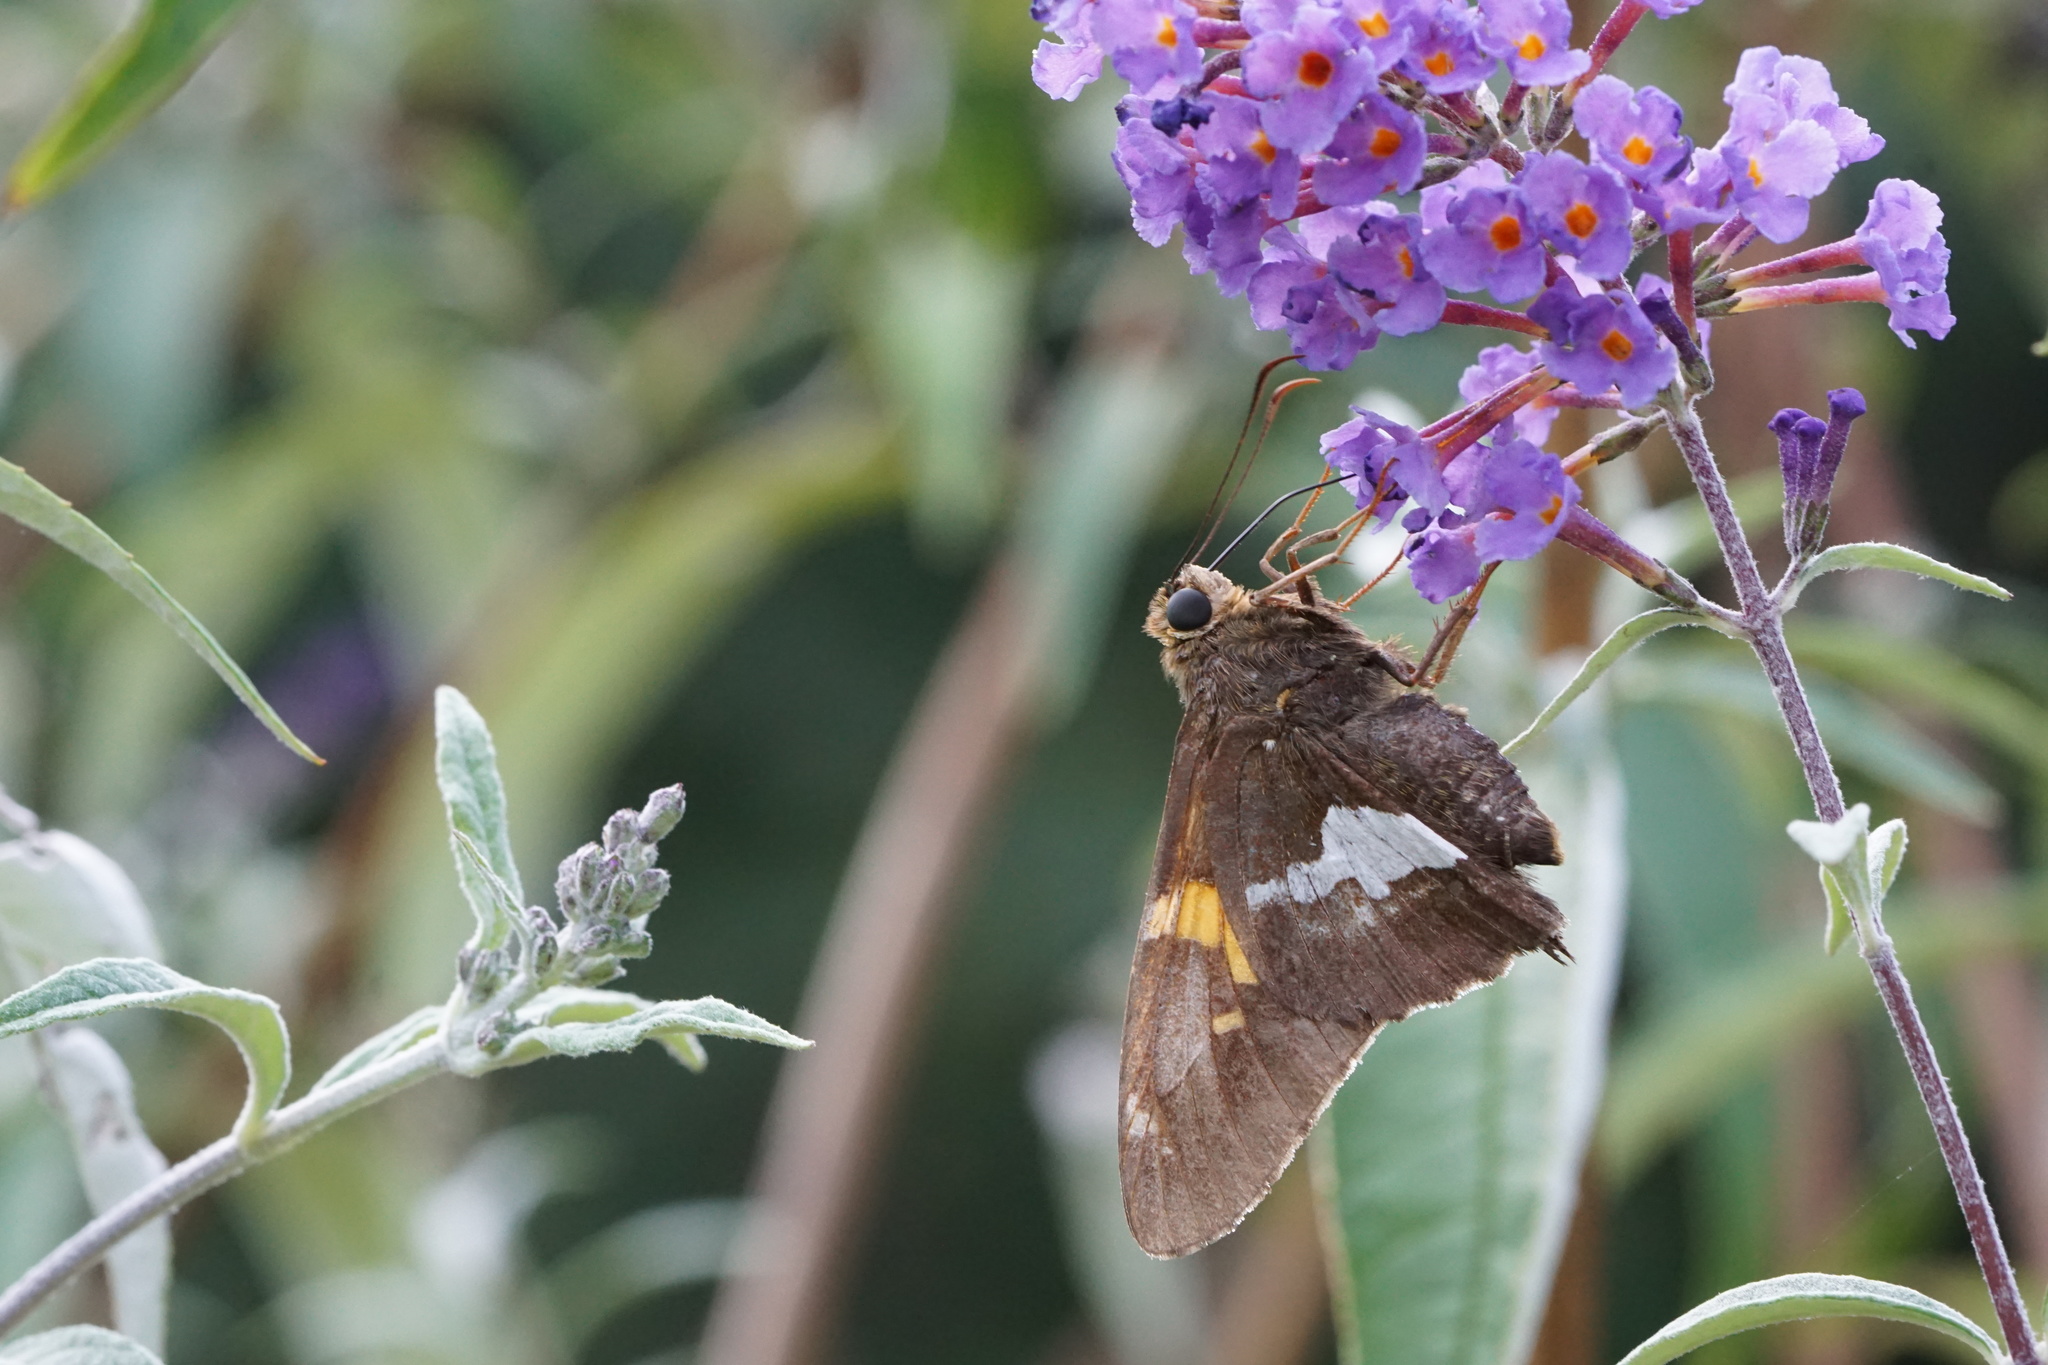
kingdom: Animalia
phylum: Arthropoda
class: Insecta
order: Lepidoptera
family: Hesperiidae
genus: Epargyreus
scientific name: Epargyreus clarus
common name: Silver-spotted skipper
